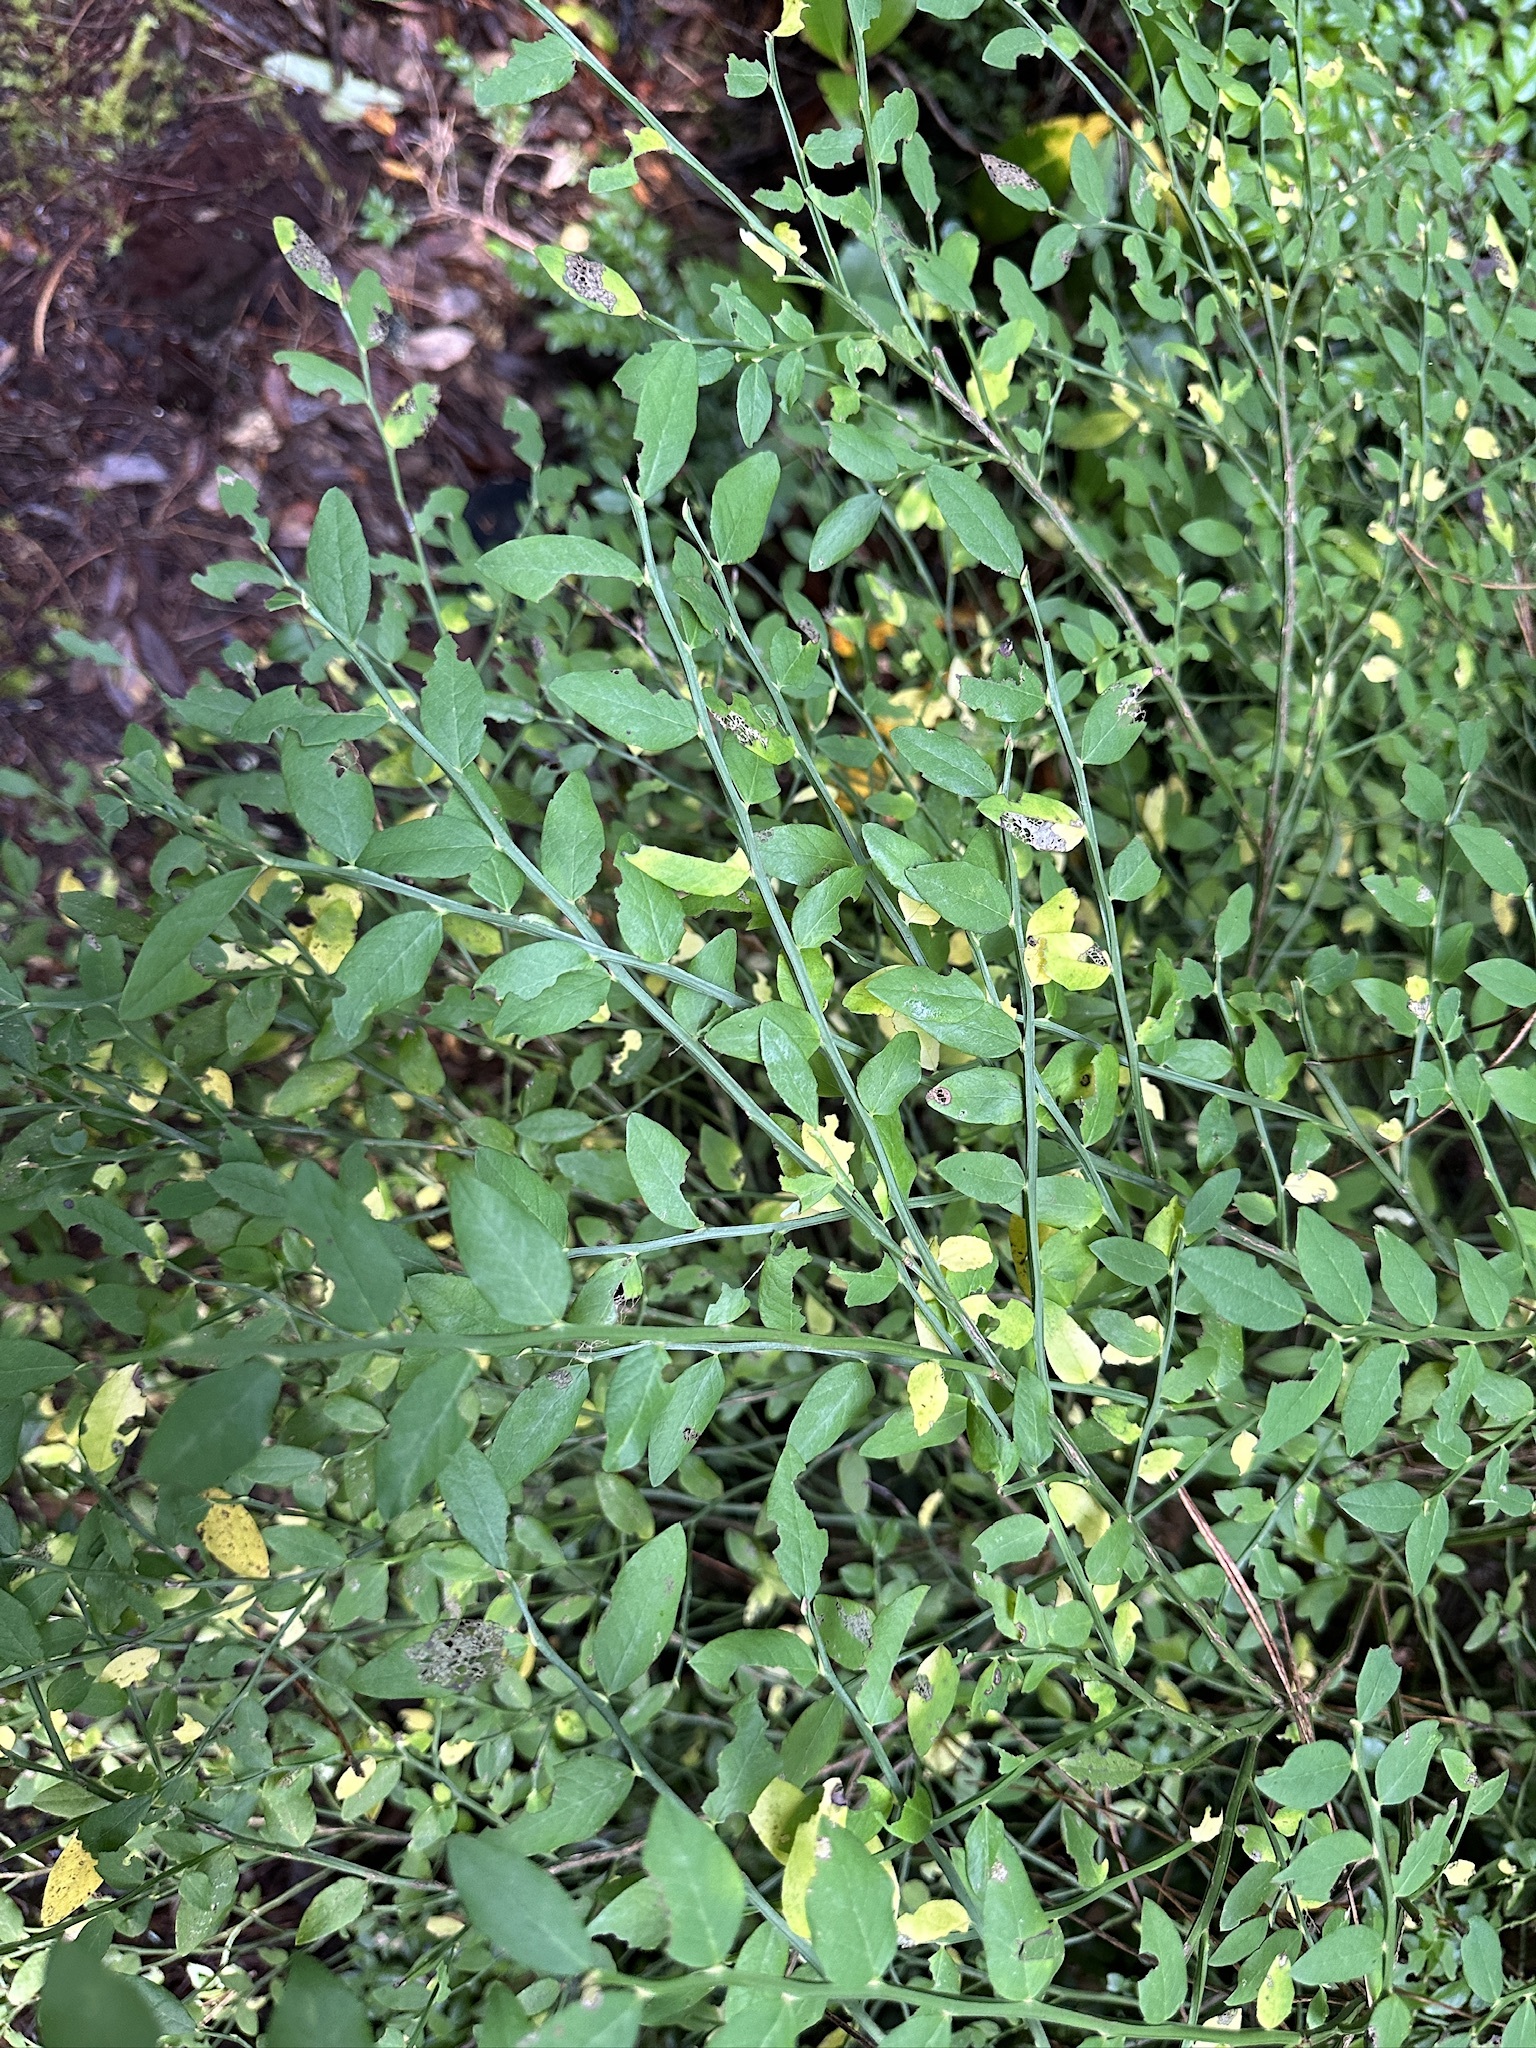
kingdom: Plantae
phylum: Tracheophyta
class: Magnoliopsida
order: Ericales
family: Ericaceae
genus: Vaccinium
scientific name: Vaccinium parvifolium
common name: Red-huckleberry
